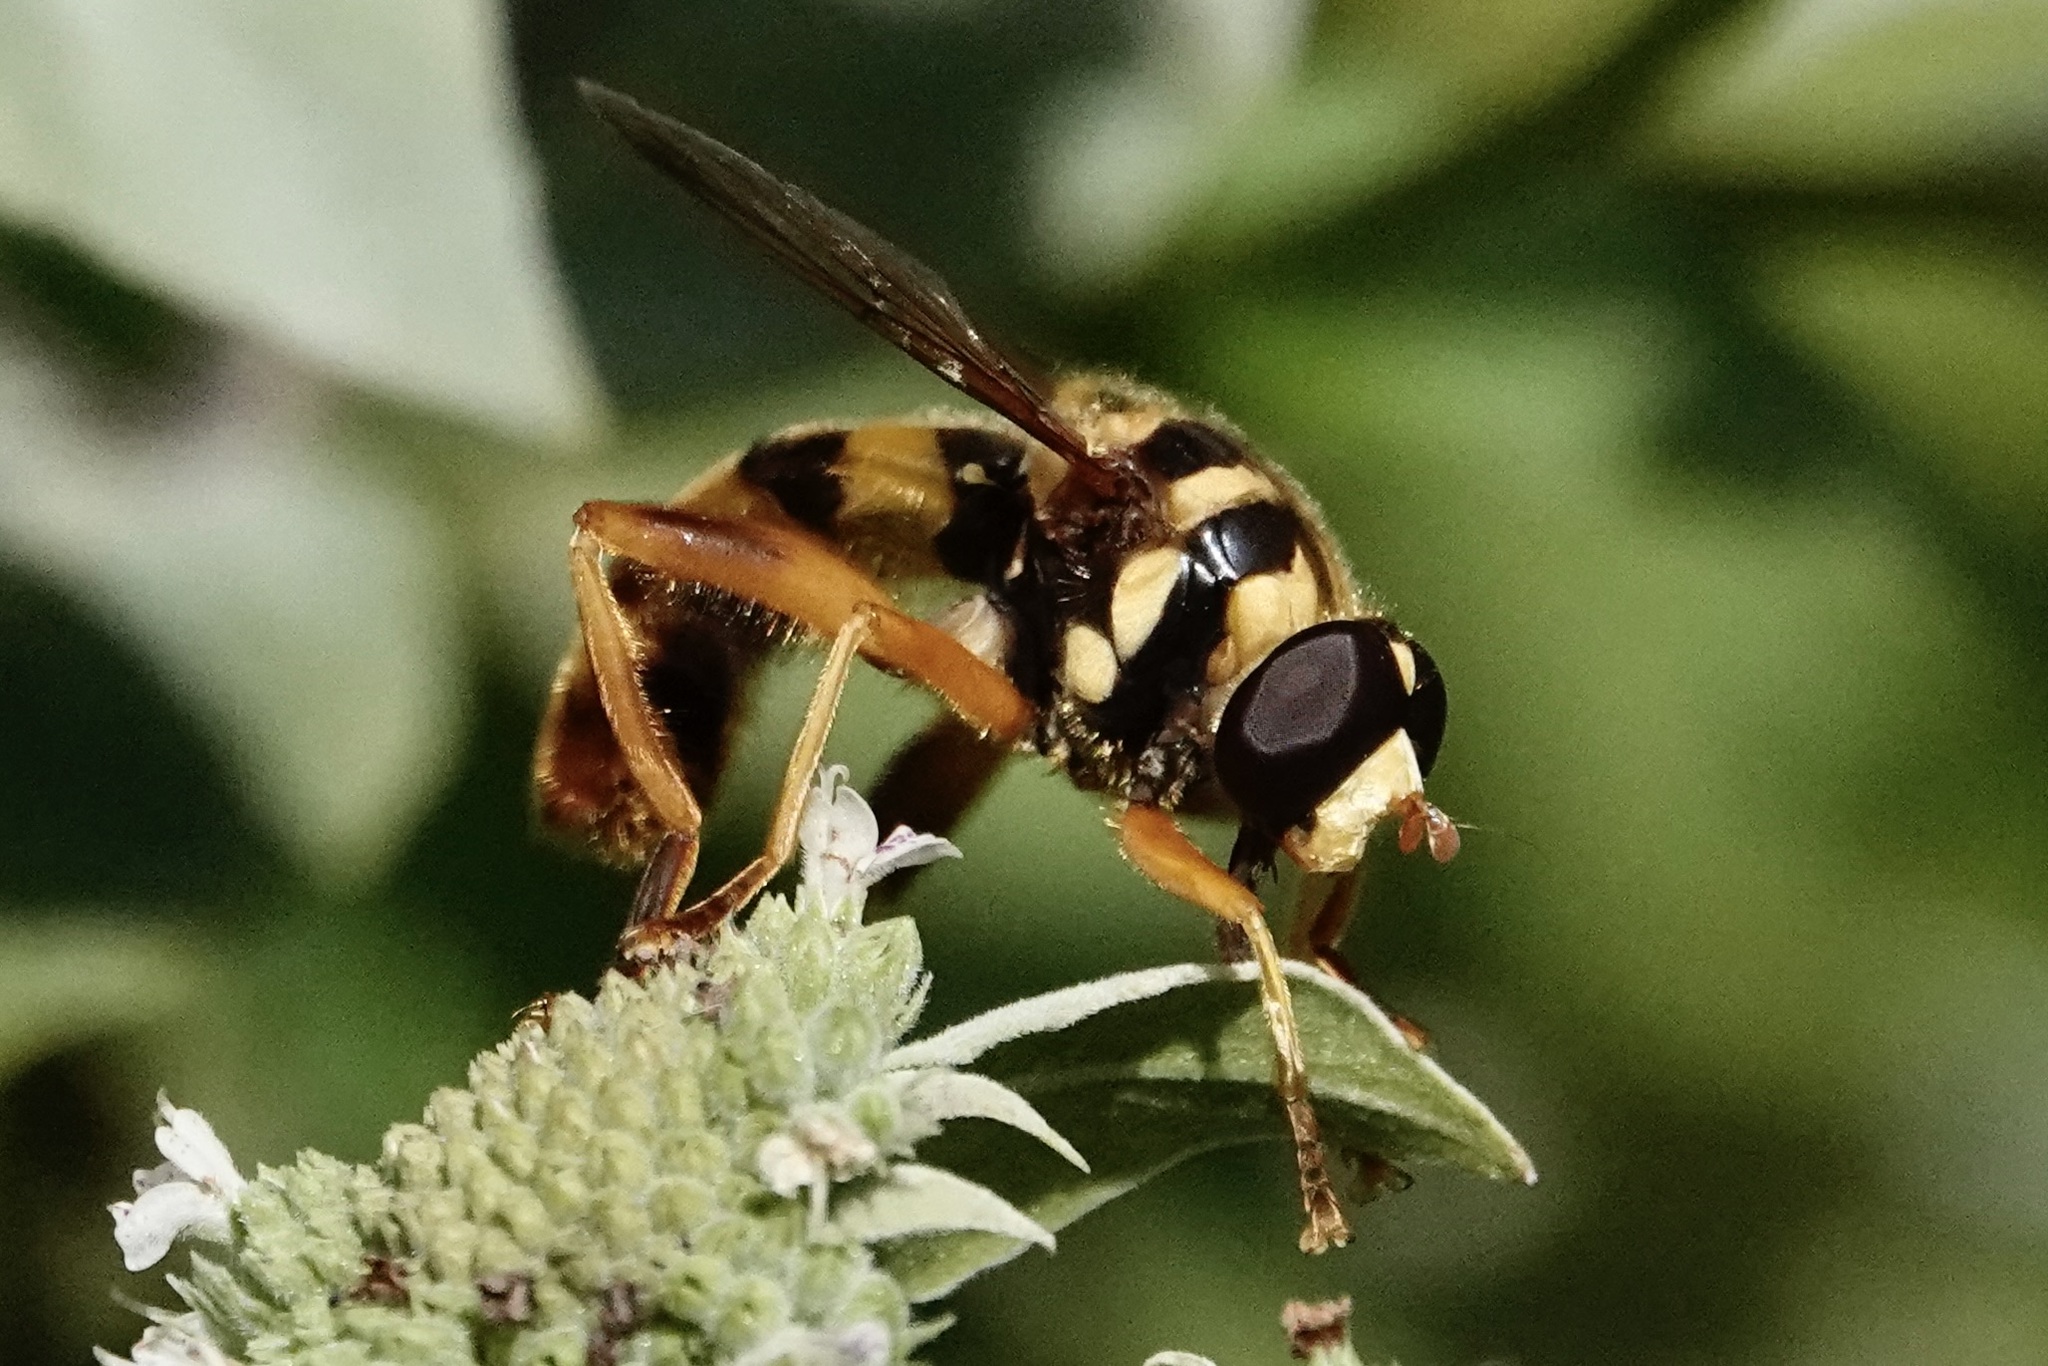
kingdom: Animalia
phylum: Arthropoda
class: Insecta
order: Diptera
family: Syrphidae
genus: Milesia
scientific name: Milesia virginiensis
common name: Virginia giant
